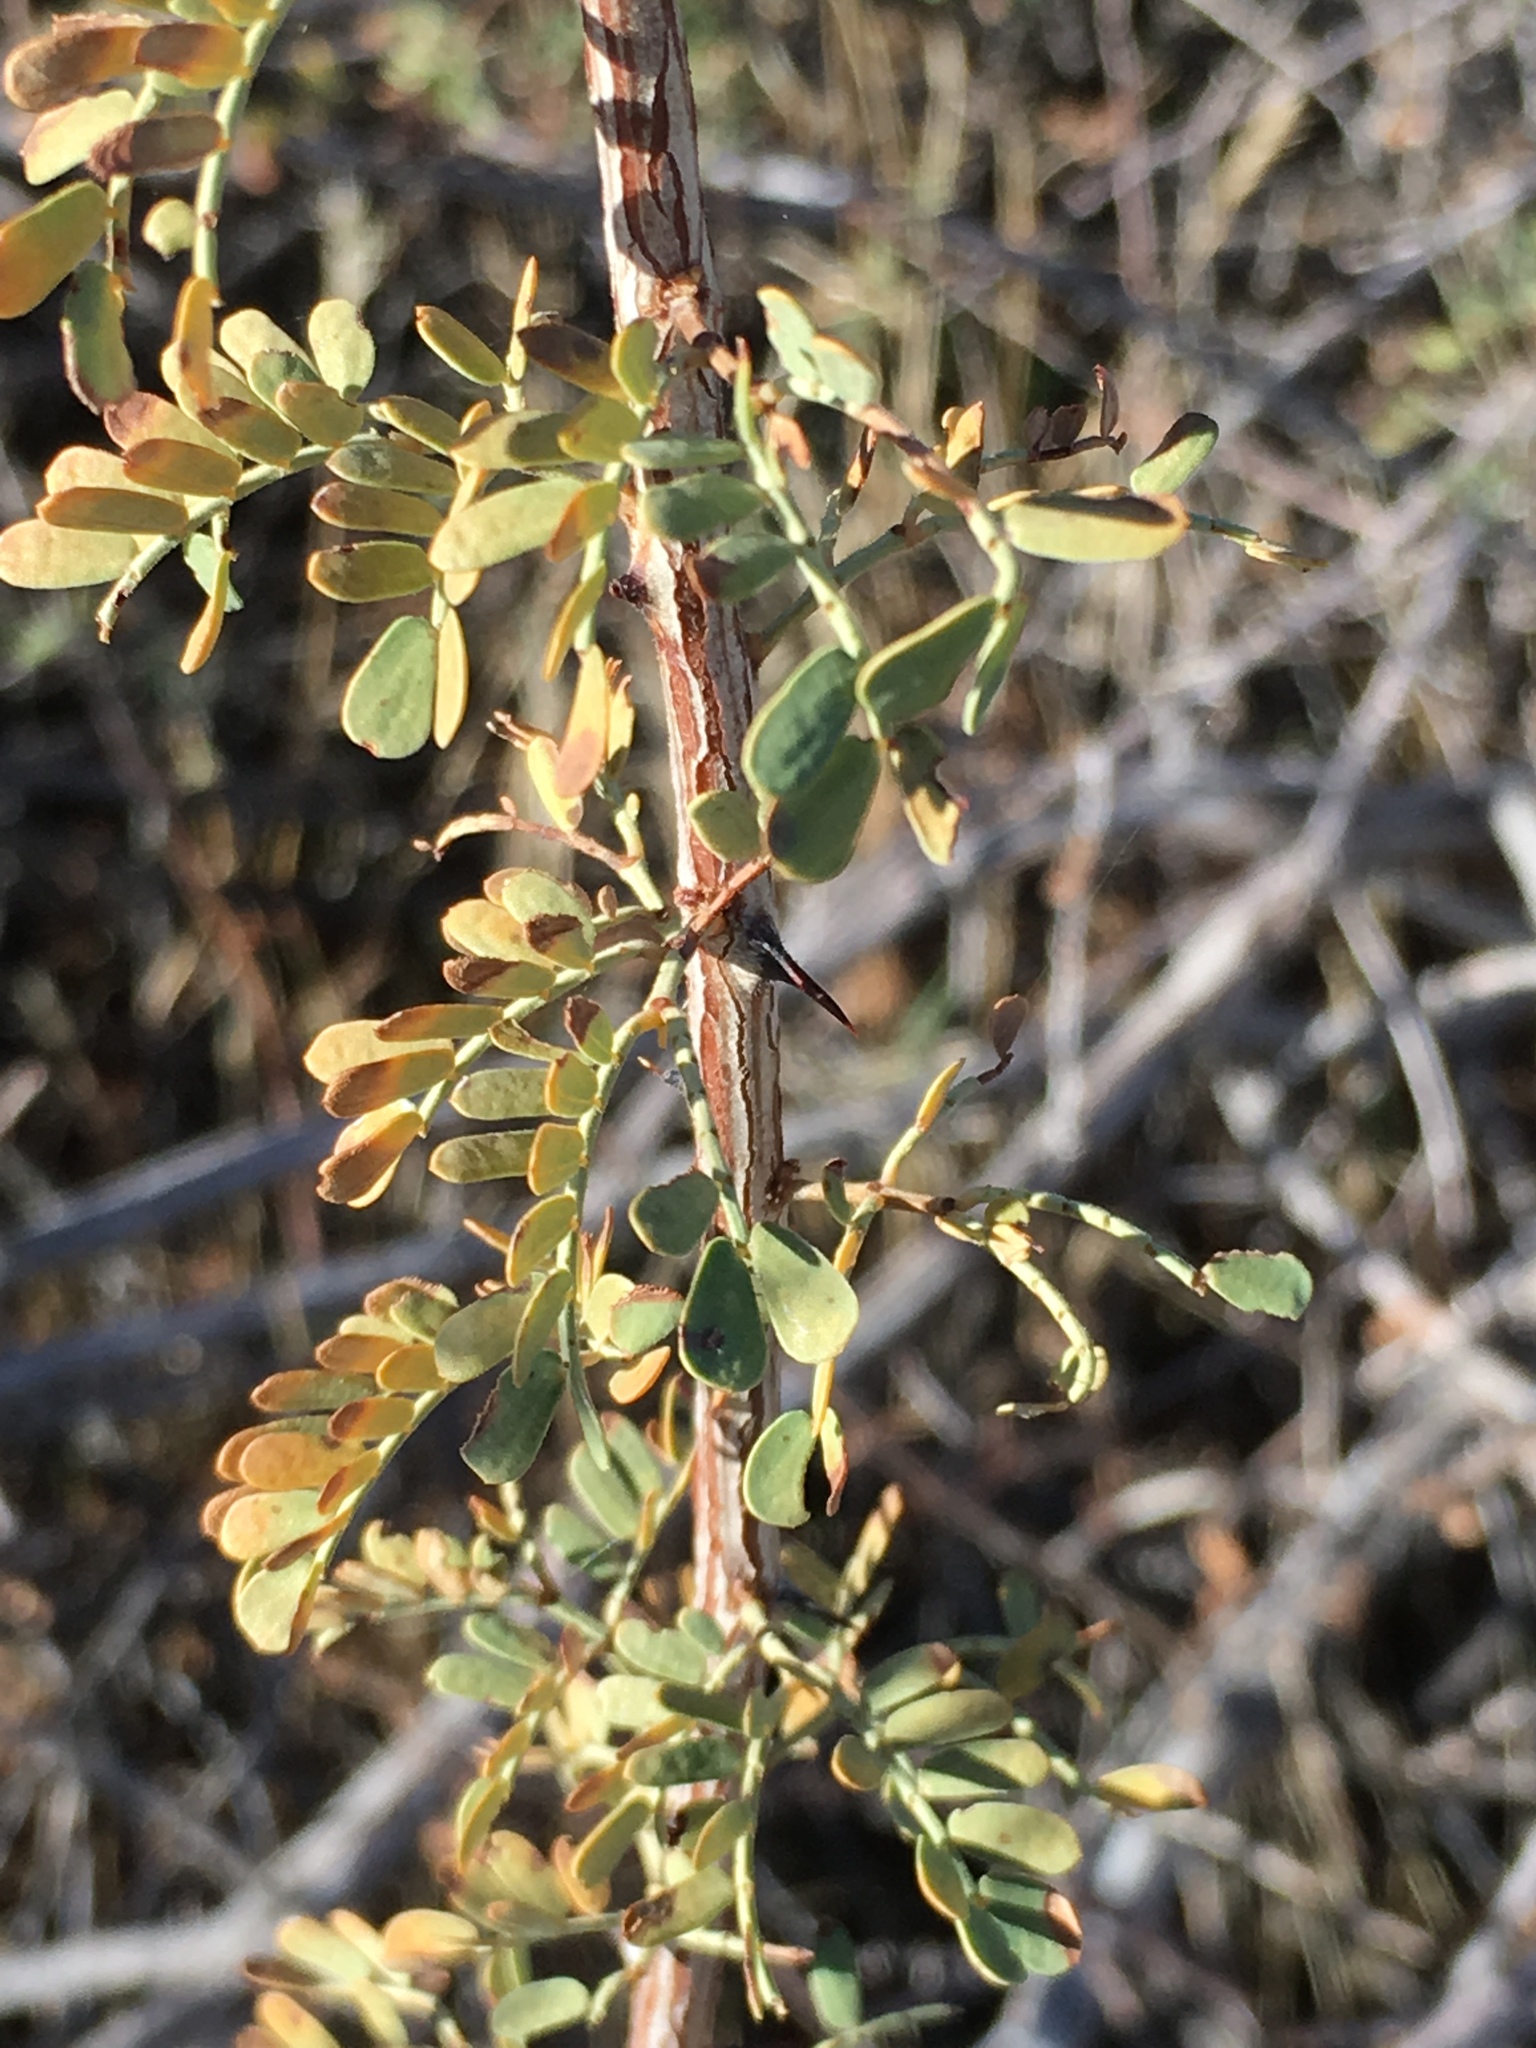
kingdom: Plantae
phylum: Tracheophyta
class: Magnoliopsida
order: Fabales
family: Fabaceae
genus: Senegalia
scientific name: Senegalia greggii
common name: Texas-mimosa
